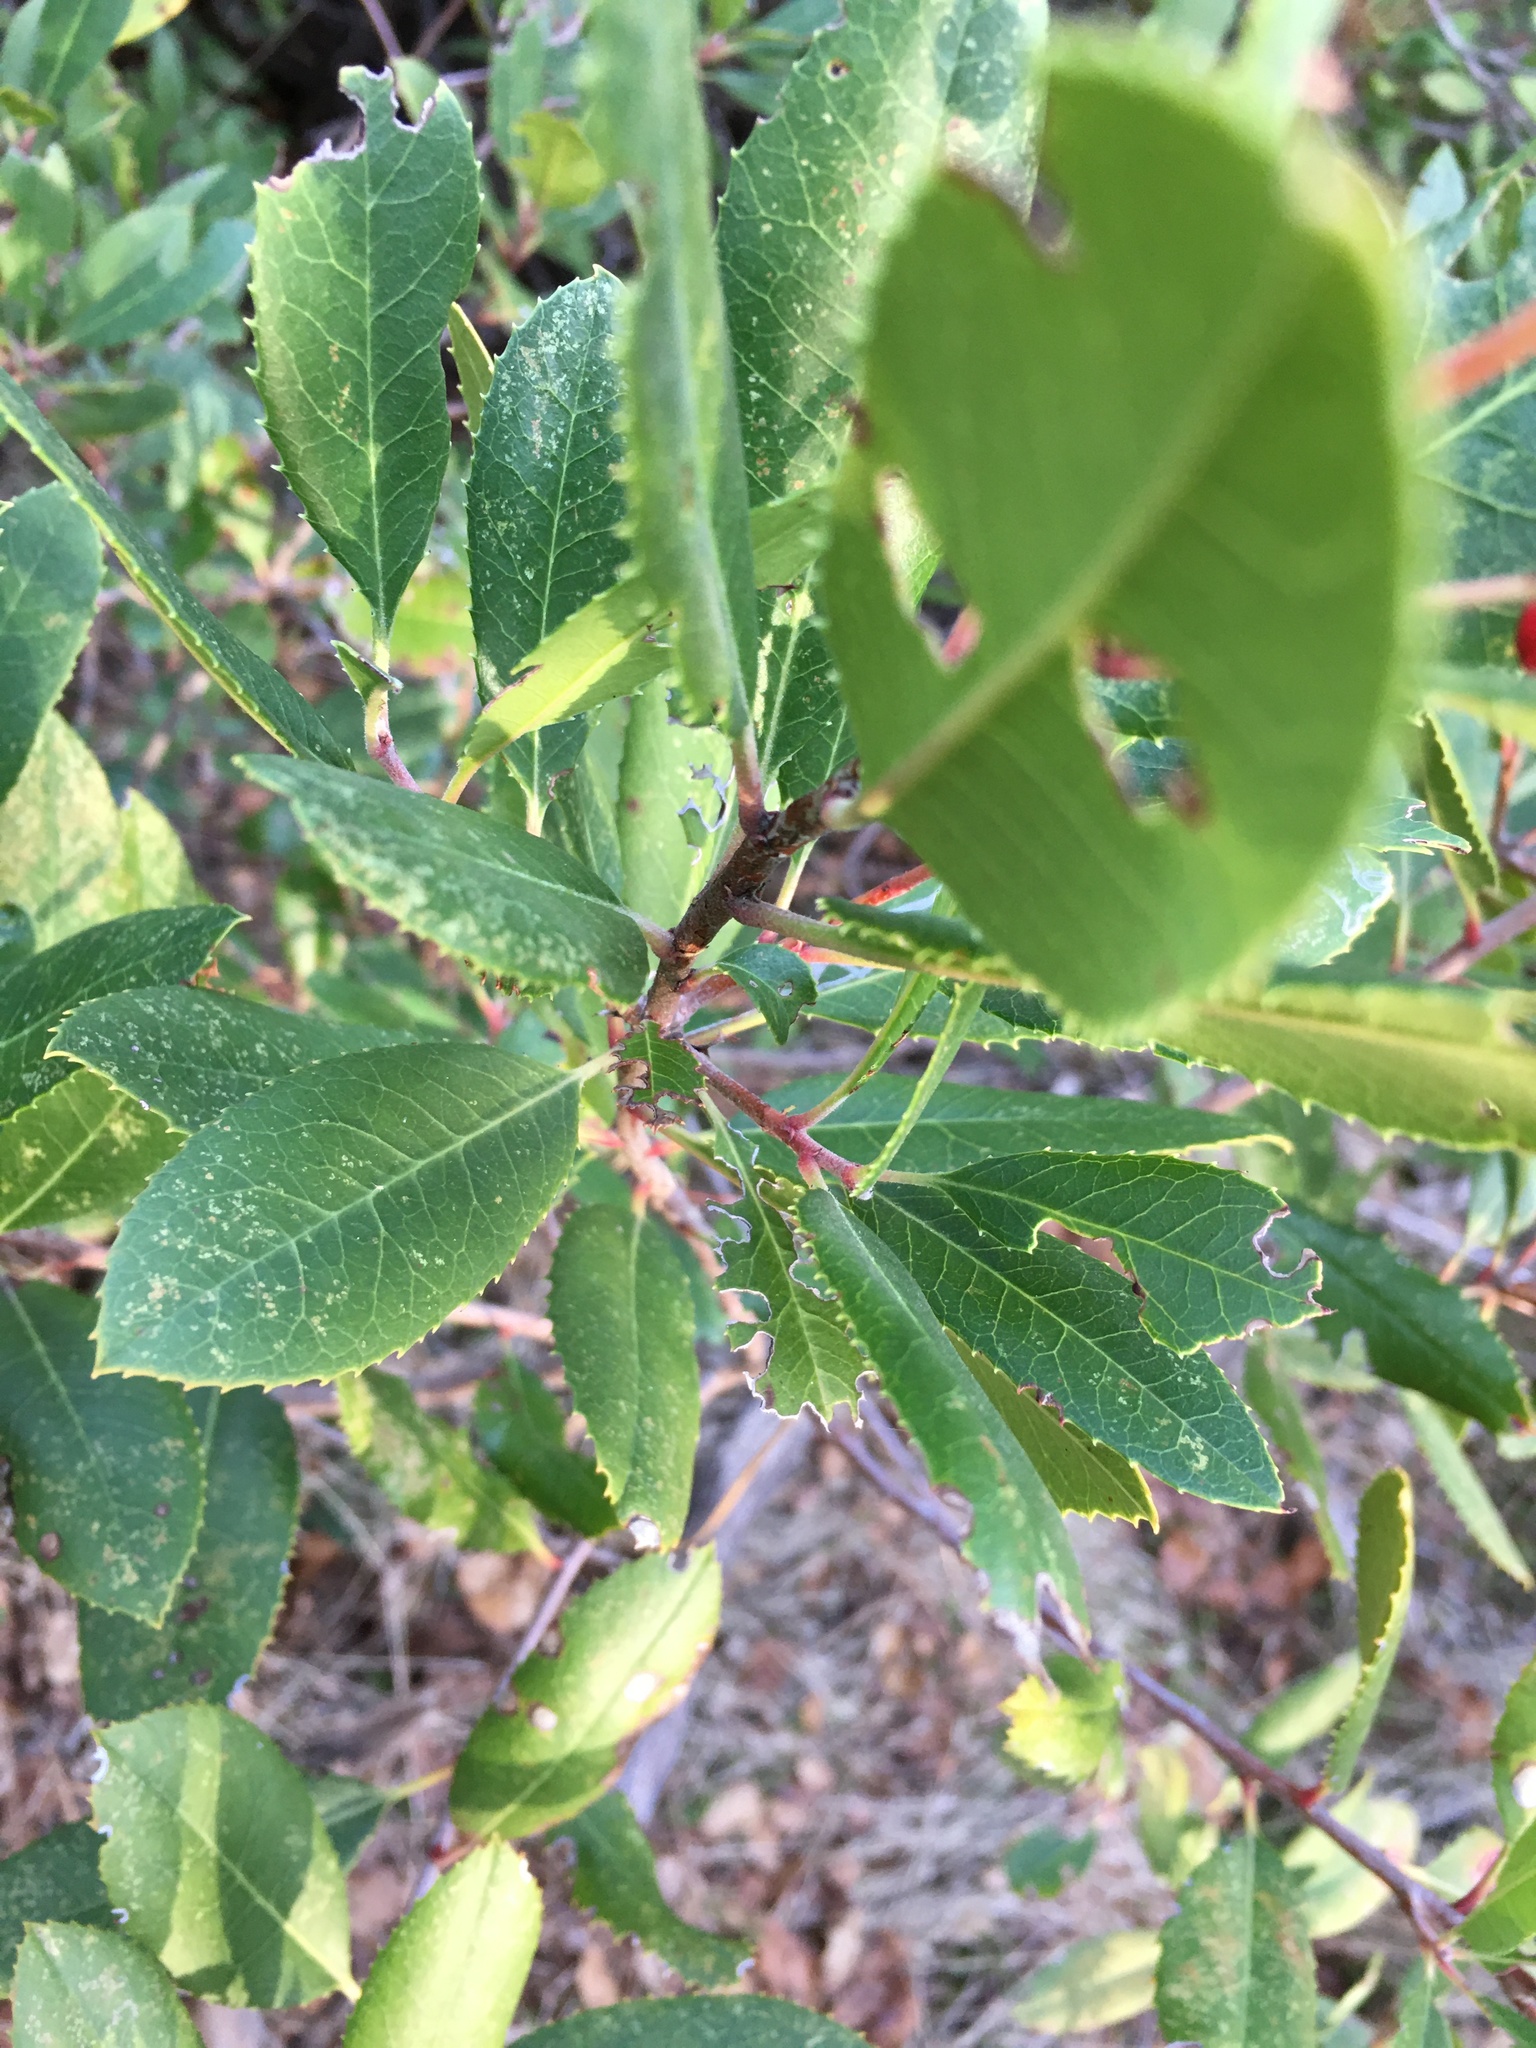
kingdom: Plantae
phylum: Tracheophyta
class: Magnoliopsida
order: Rosales
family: Rosaceae
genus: Heteromeles
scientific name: Heteromeles arbutifolia
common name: California-holly
